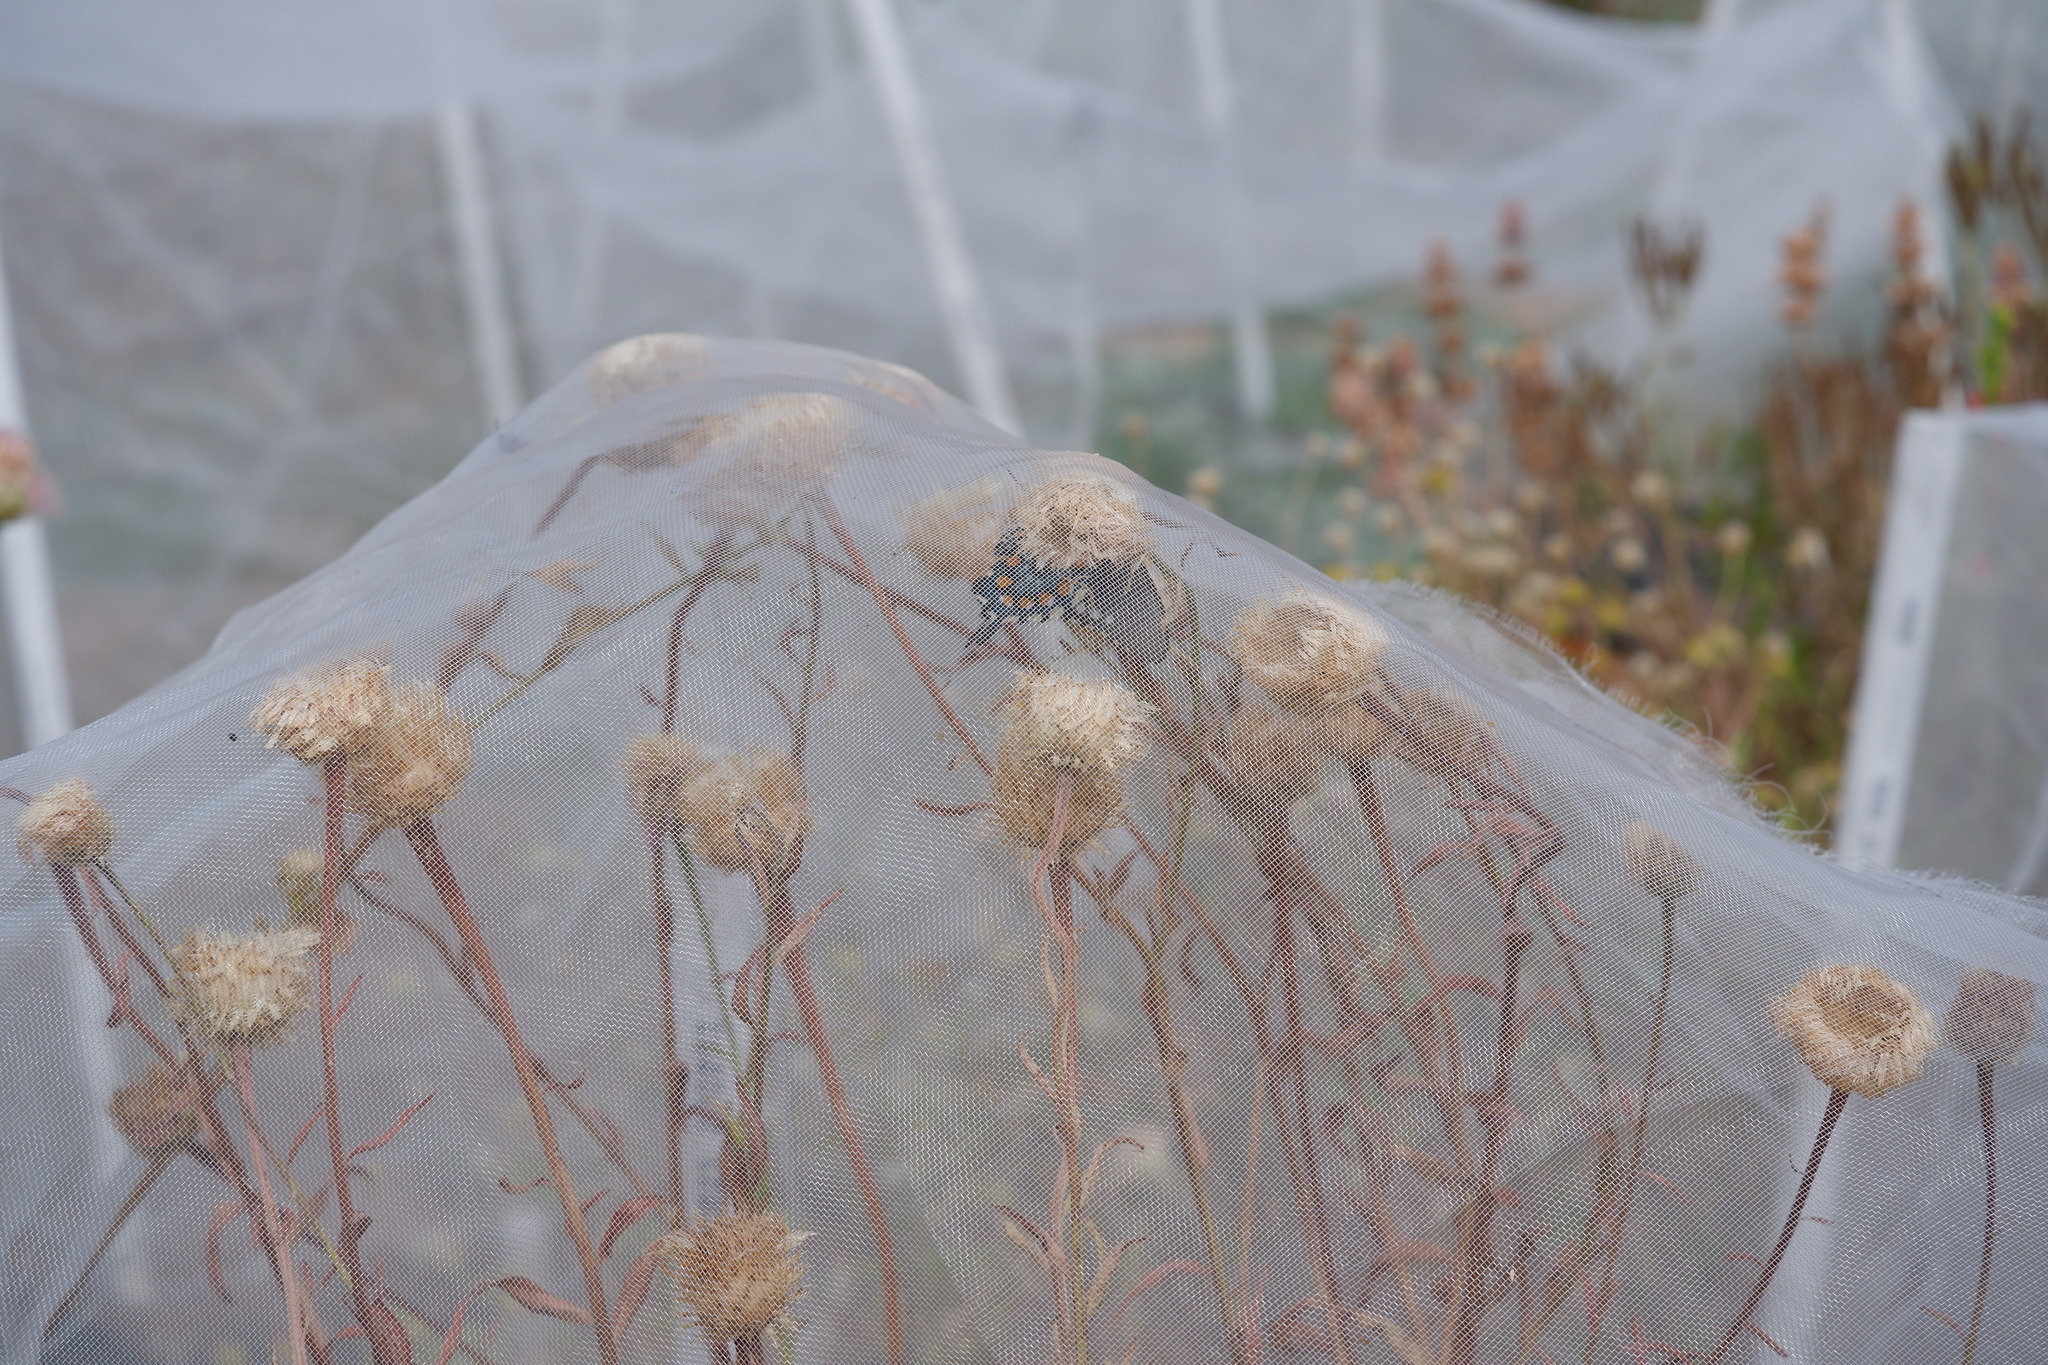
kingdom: Animalia
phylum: Arthropoda
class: Insecta
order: Lepidoptera
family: Papilionidae
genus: Battus
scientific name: Battus philenor
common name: Pipevine swallowtail
